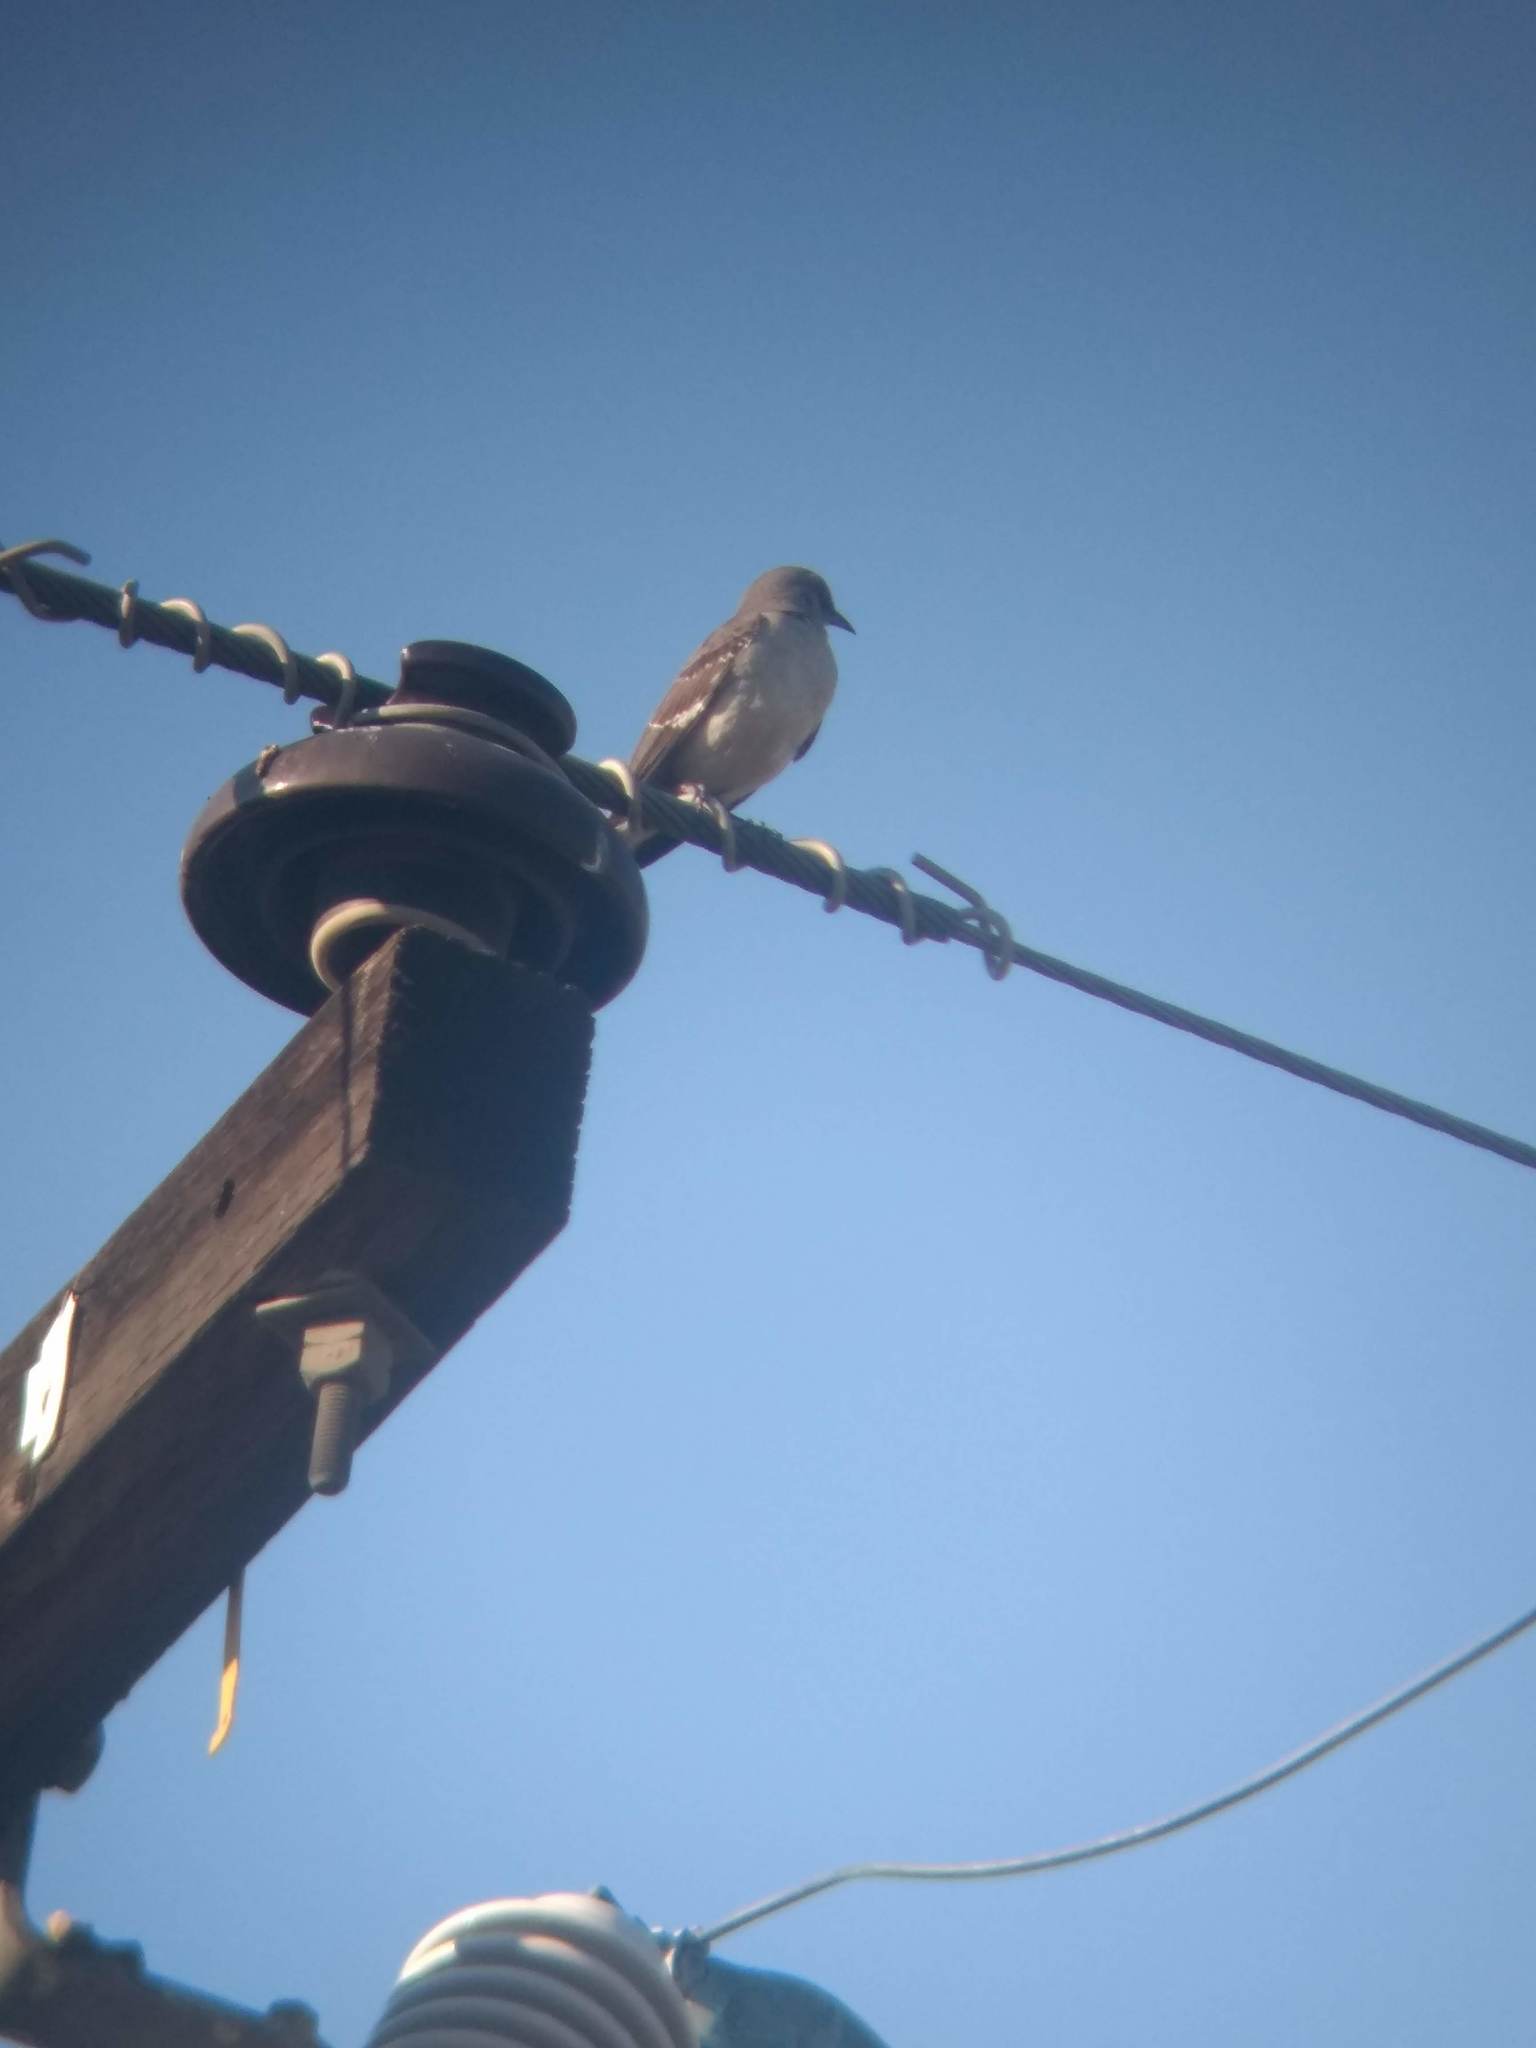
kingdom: Animalia
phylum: Chordata
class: Aves
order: Passeriformes
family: Mimidae
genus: Mimus
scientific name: Mimus polyglottos
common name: Northern mockingbird
